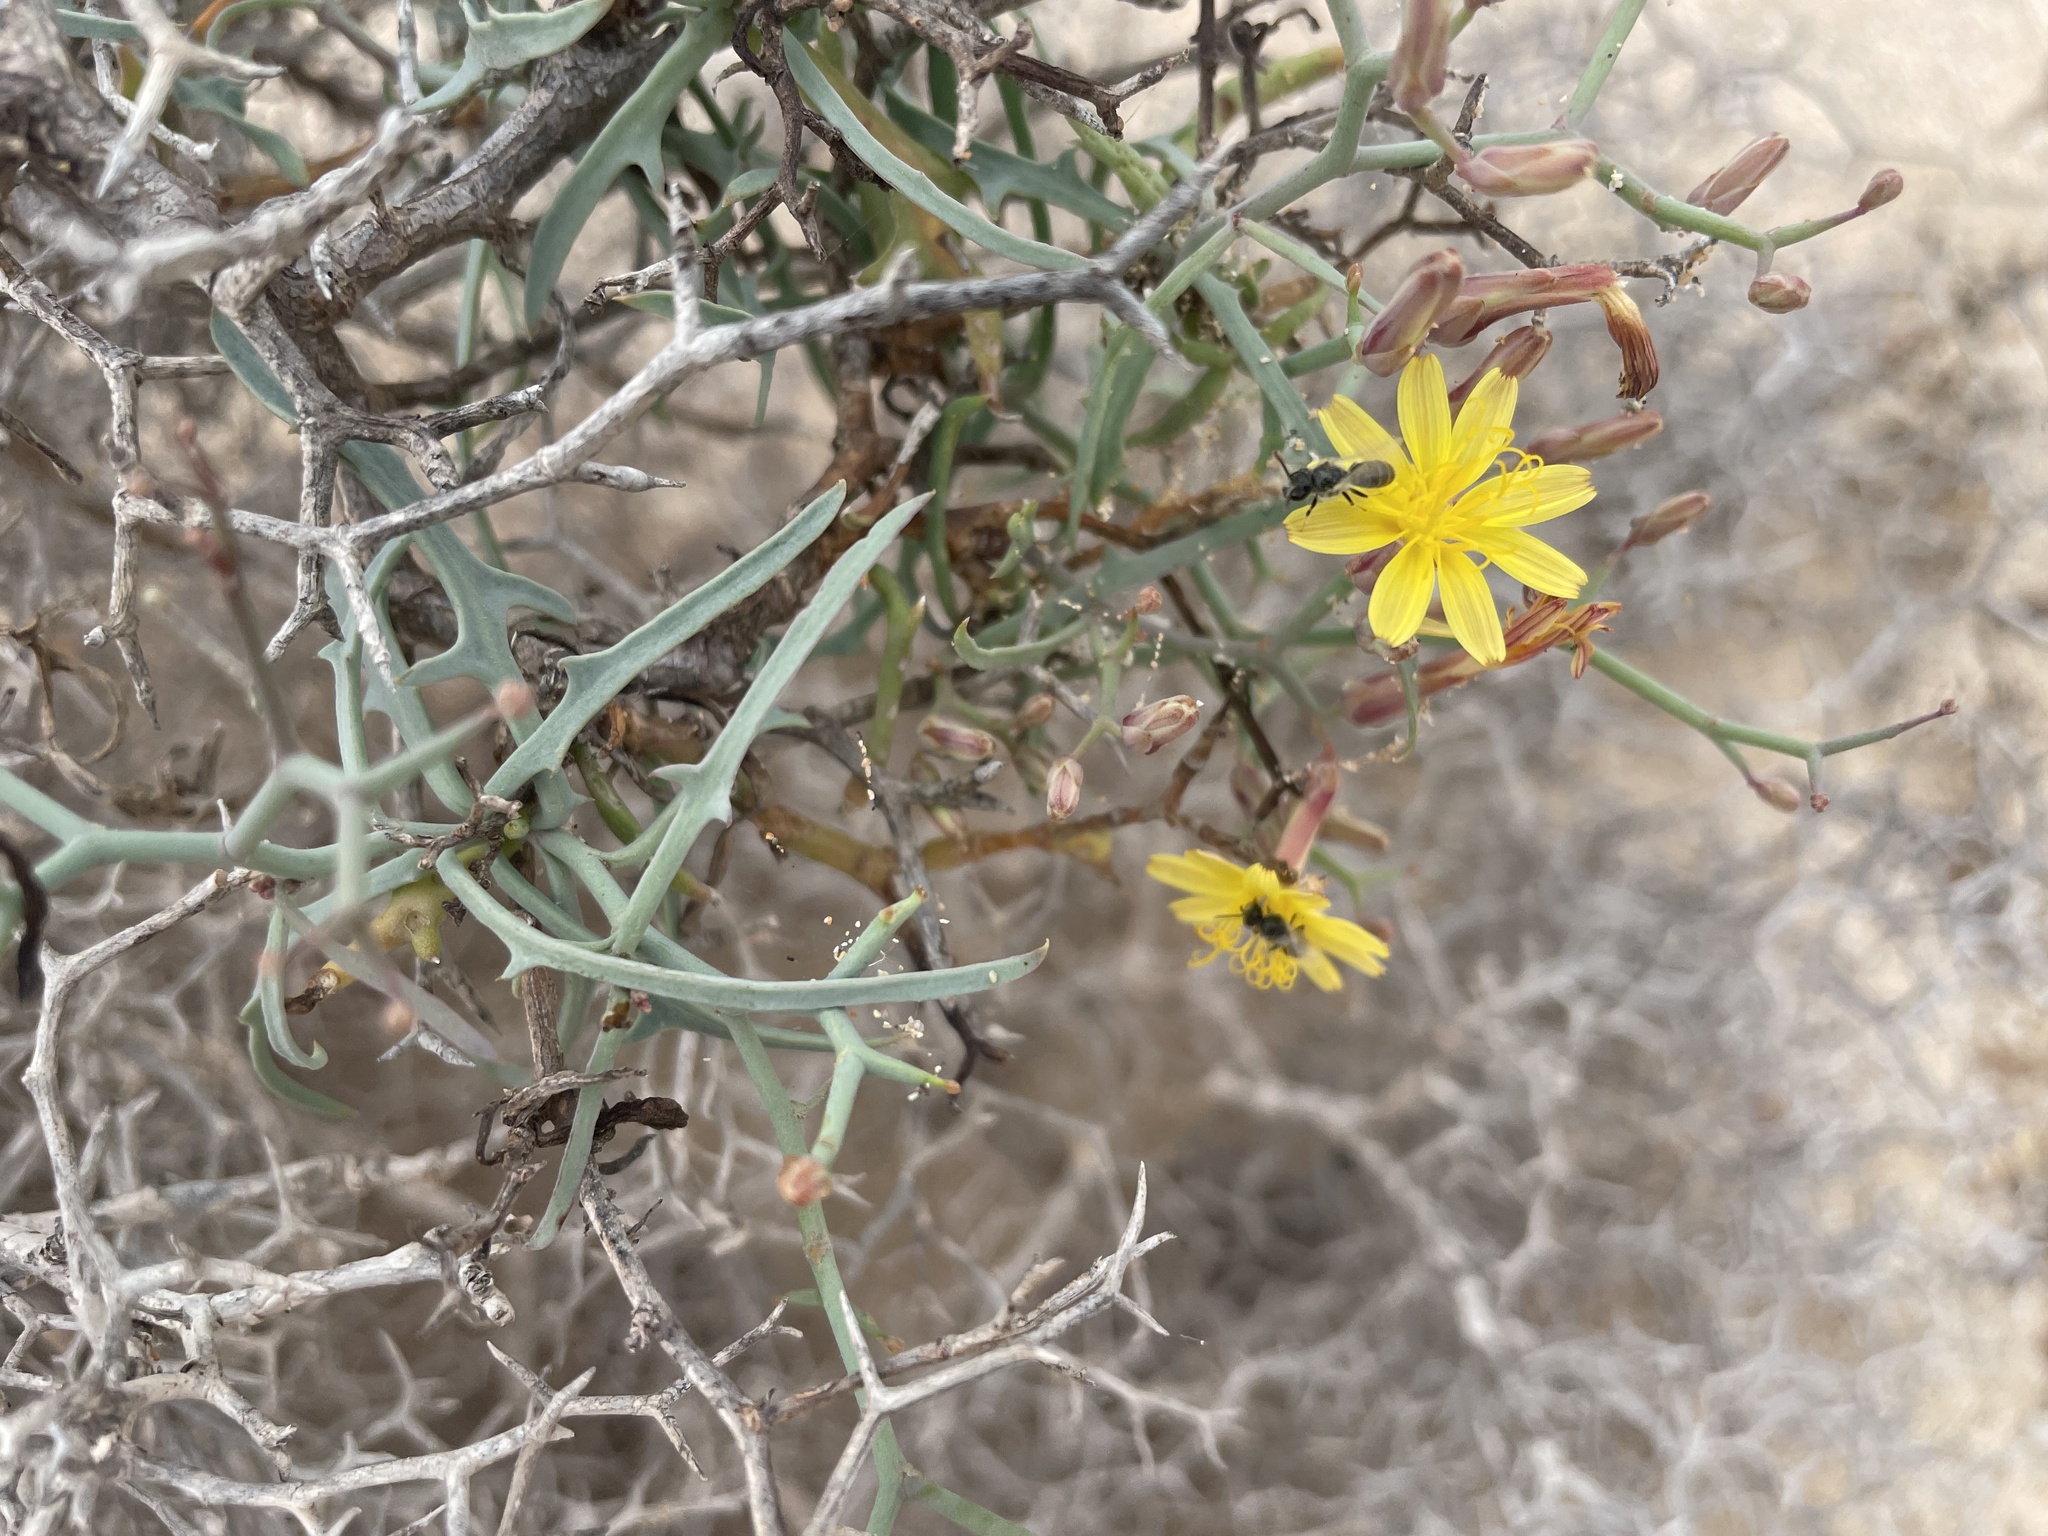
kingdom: Plantae
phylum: Tracheophyta
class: Magnoliopsida
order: Asterales
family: Asteraceae
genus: Launaea
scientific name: Launaea arborescens
